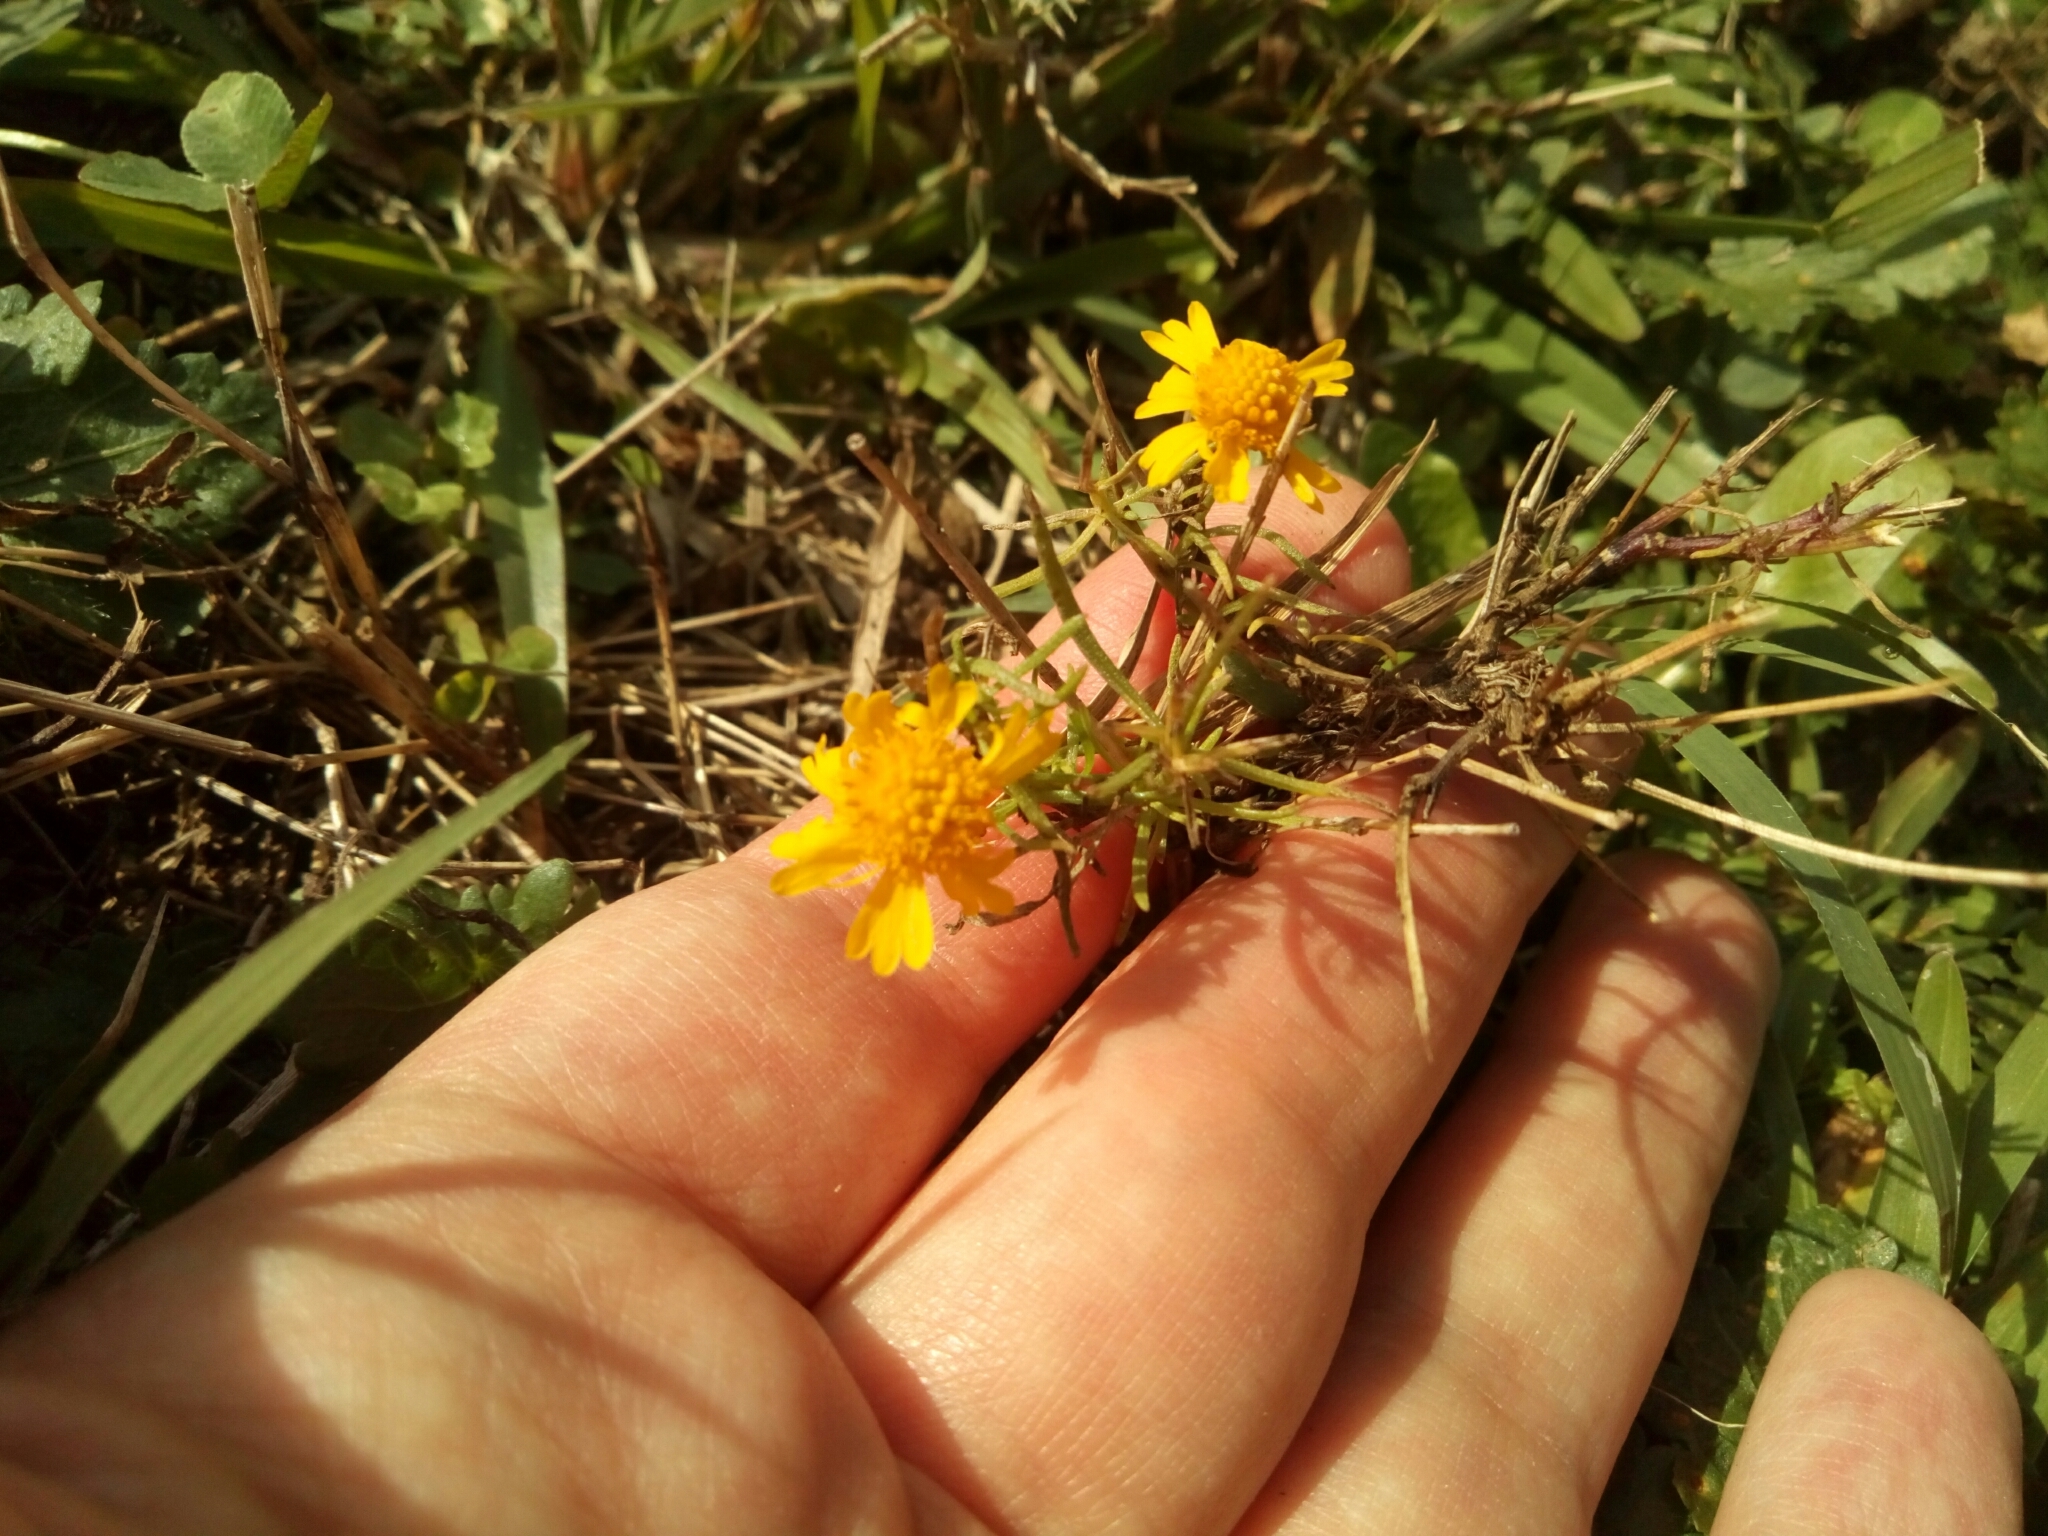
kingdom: Plantae
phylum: Tracheophyta
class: Magnoliopsida
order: Asterales
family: Asteraceae
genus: Helenium
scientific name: Helenium amarum
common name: Bitter sneezeweed
